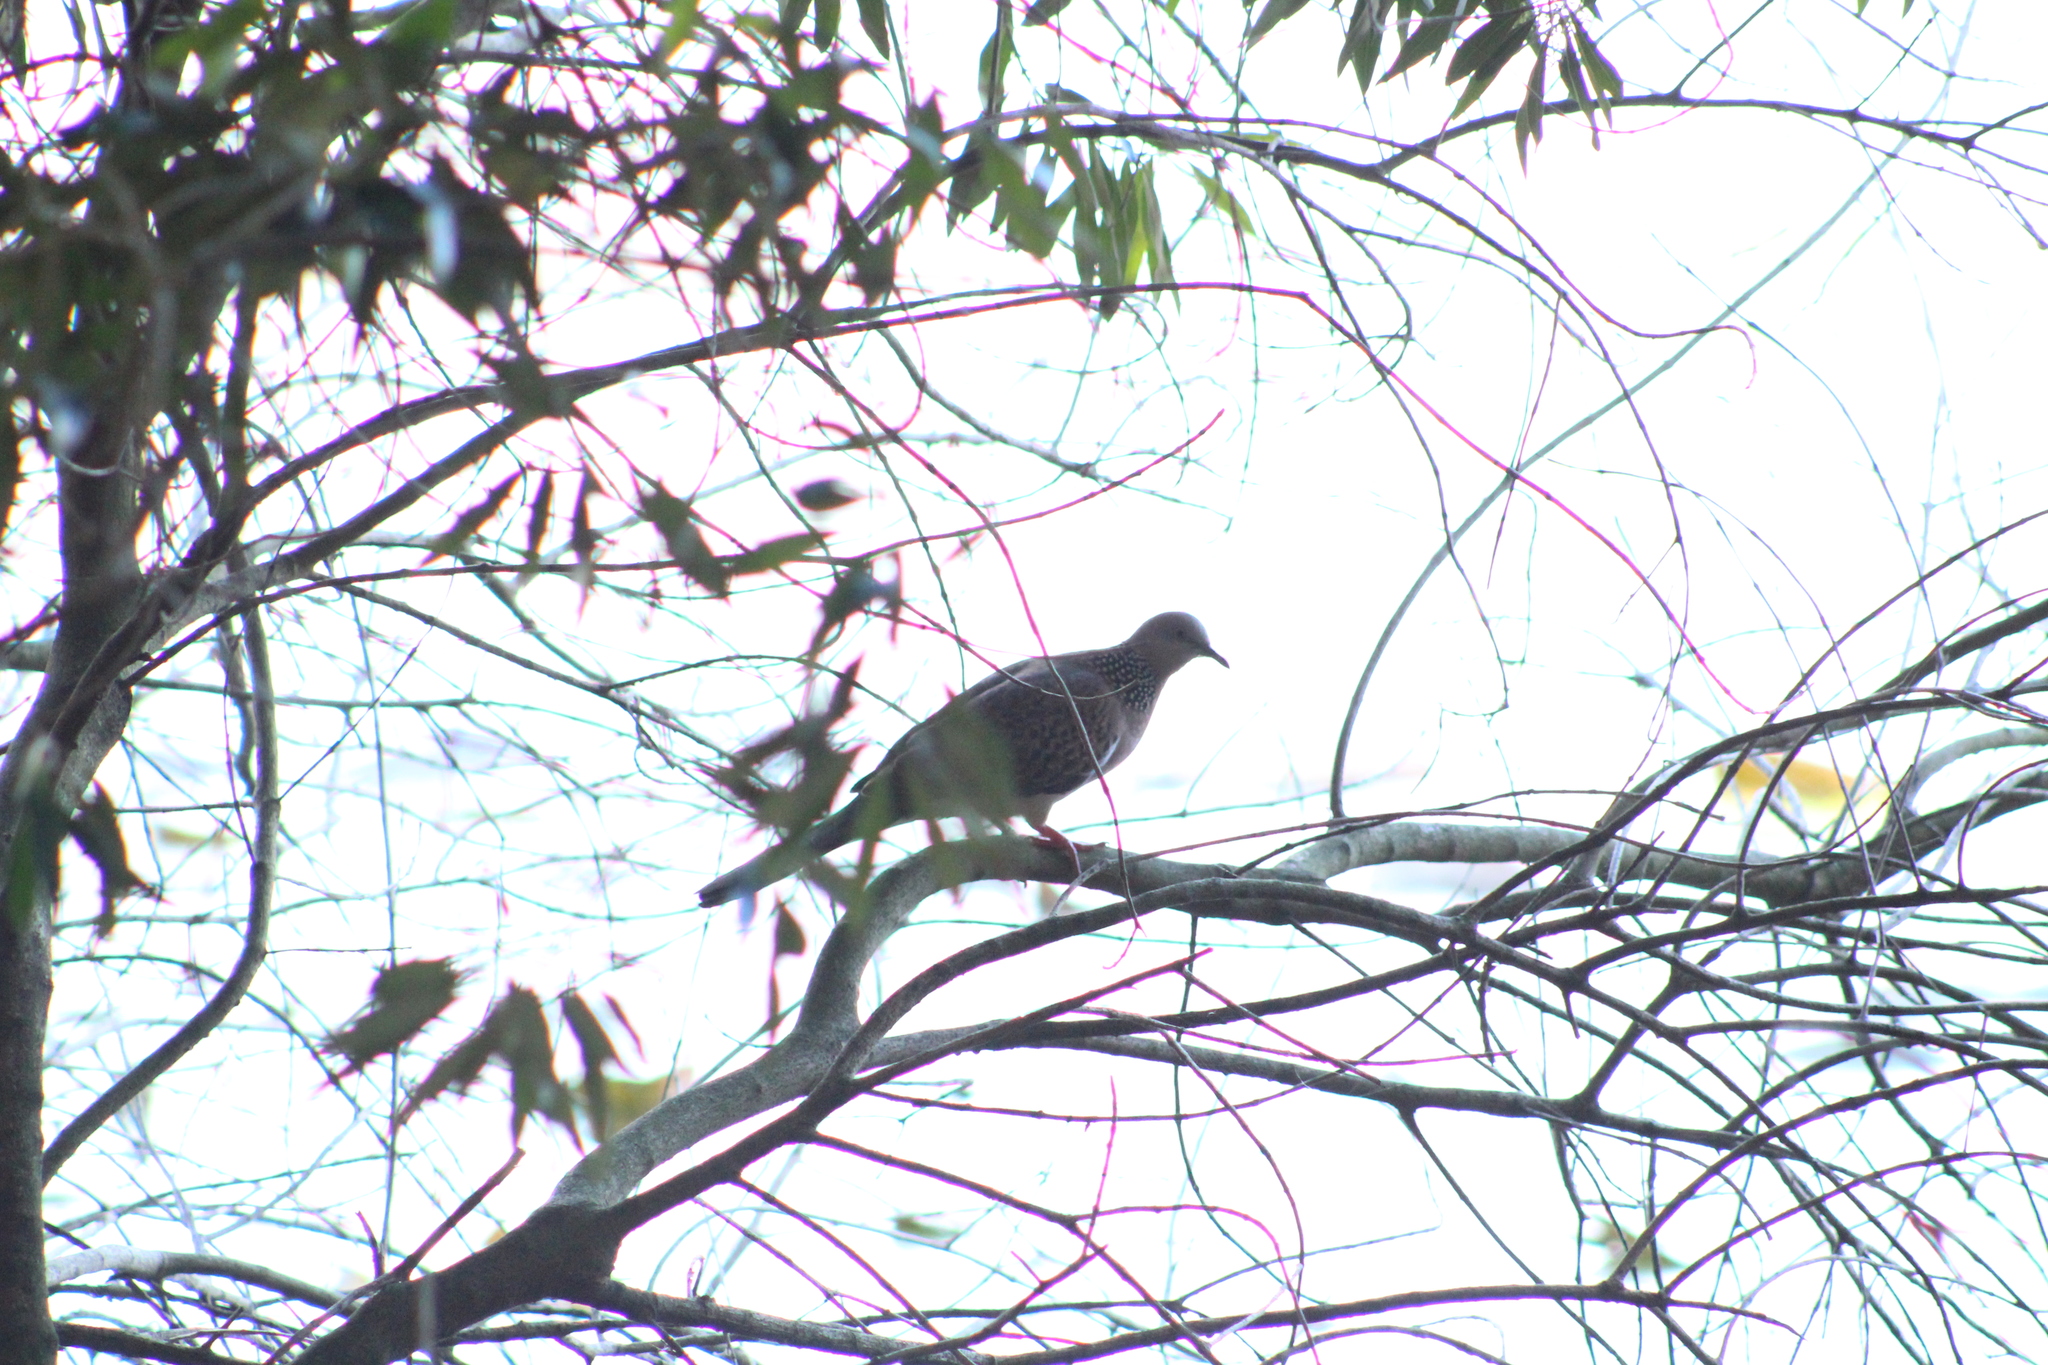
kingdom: Animalia
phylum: Chordata
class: Aves
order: Columbiformes
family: Columbidae
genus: Spilopelia
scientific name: Spilopelia chinensis
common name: Spotted dove
